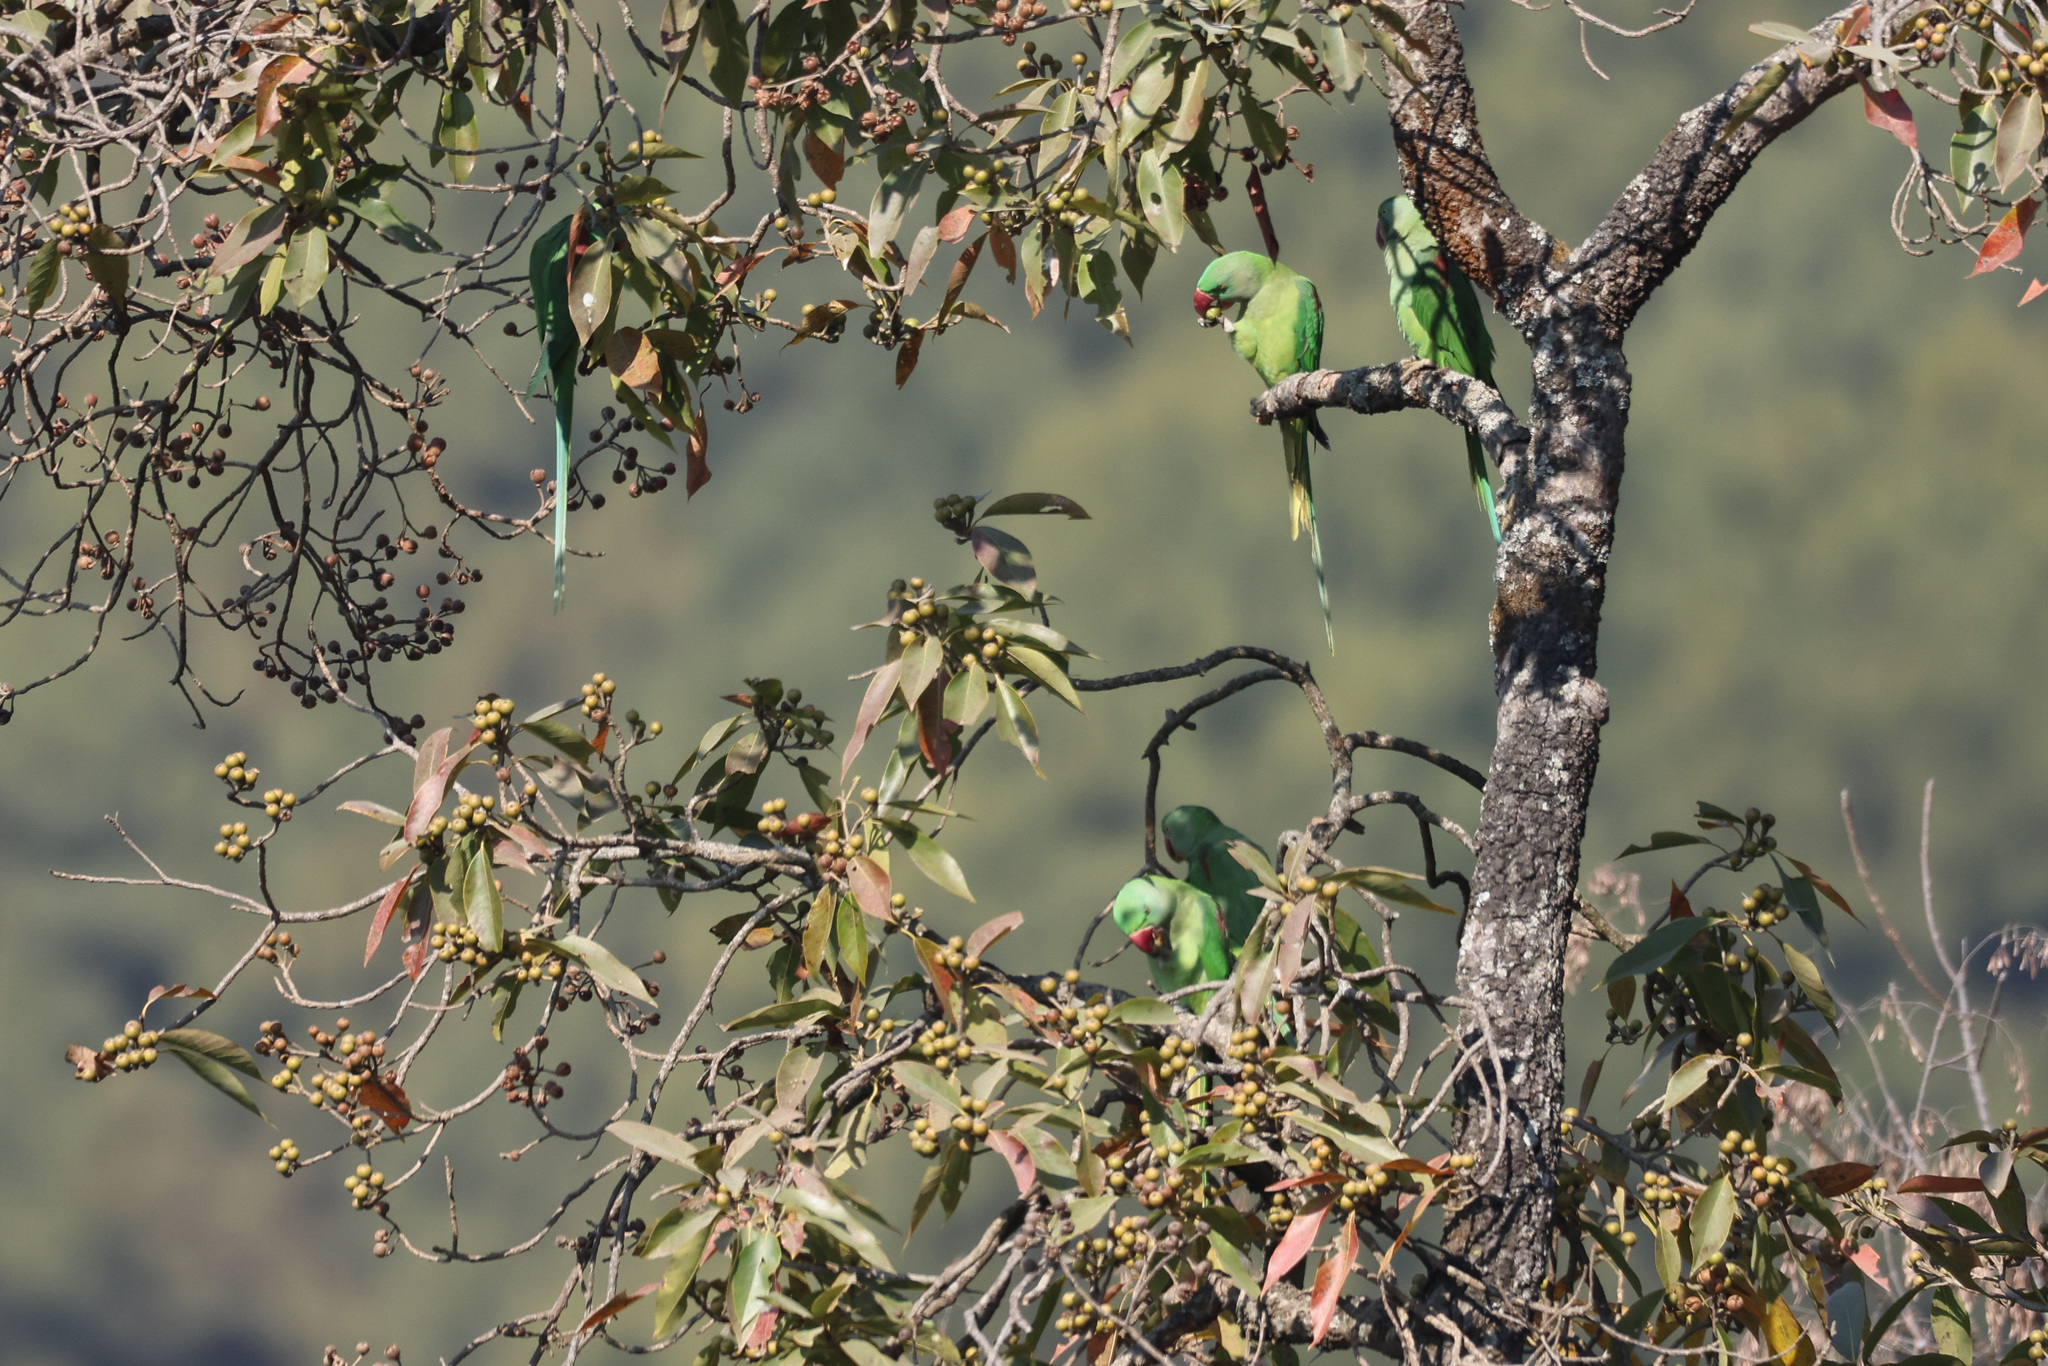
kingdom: Animalia
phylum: Chordata
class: Aves
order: Psittaciformes
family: Psittacidae
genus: Psittacula
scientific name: Psittacula eupatria
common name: Alexandrine parakeet
